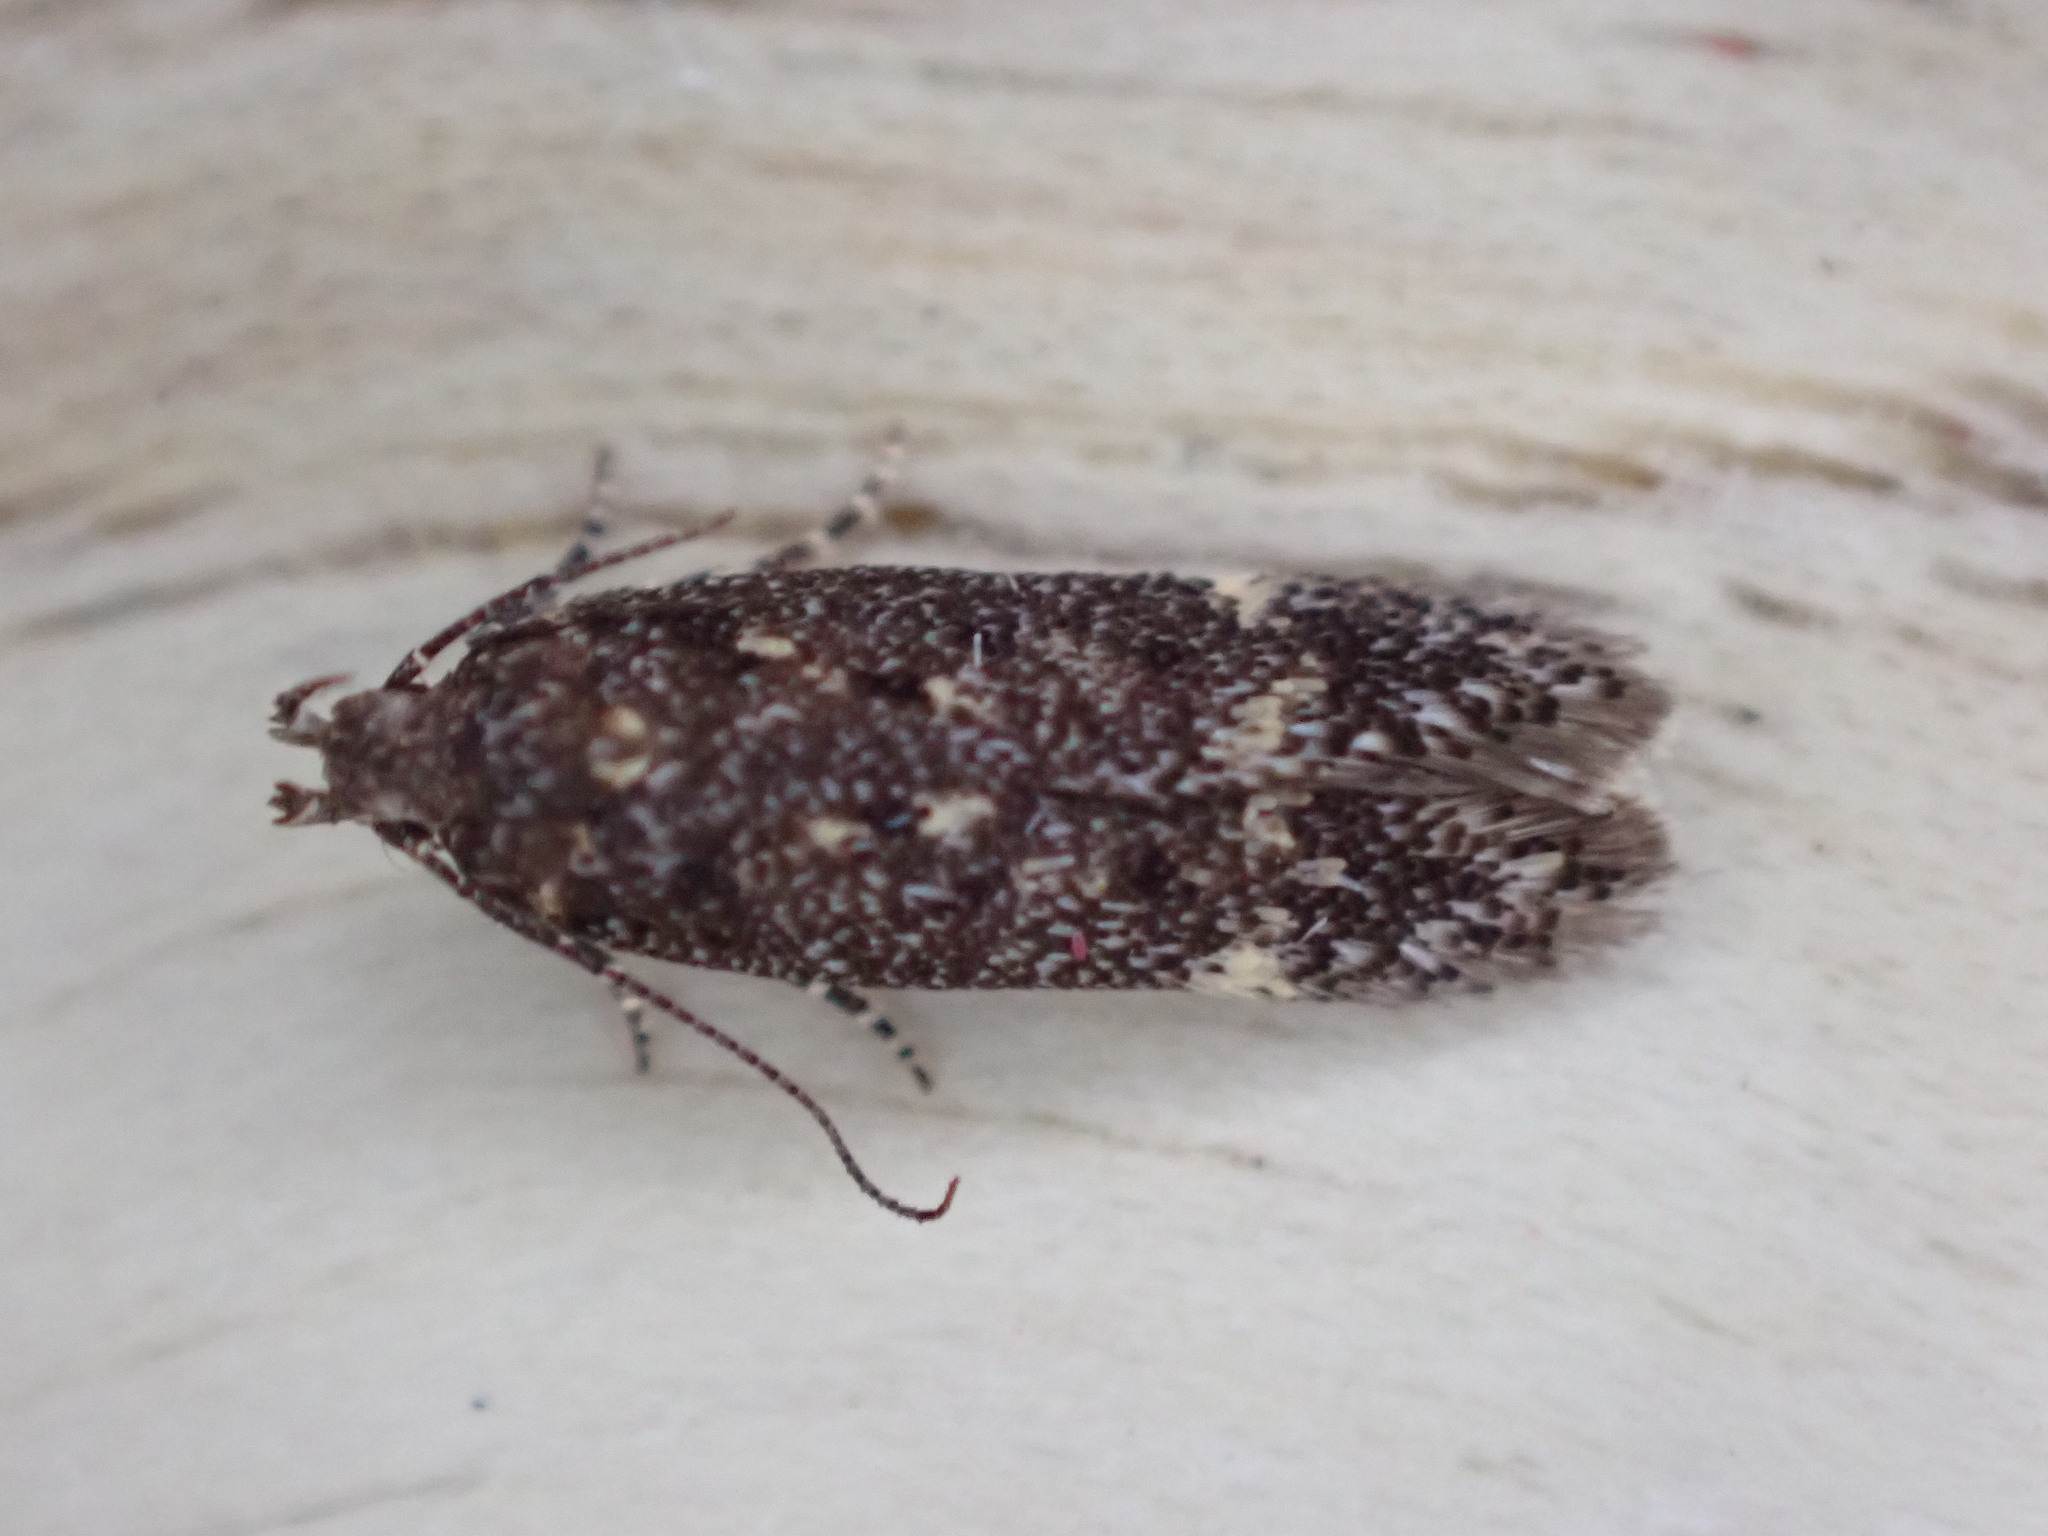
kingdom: Animalia
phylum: Arthropoda
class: Insecta
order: Lepidoptera
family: Gelechiidae
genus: Bryotropha
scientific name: Bryotropha affinis
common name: Dark groundling
